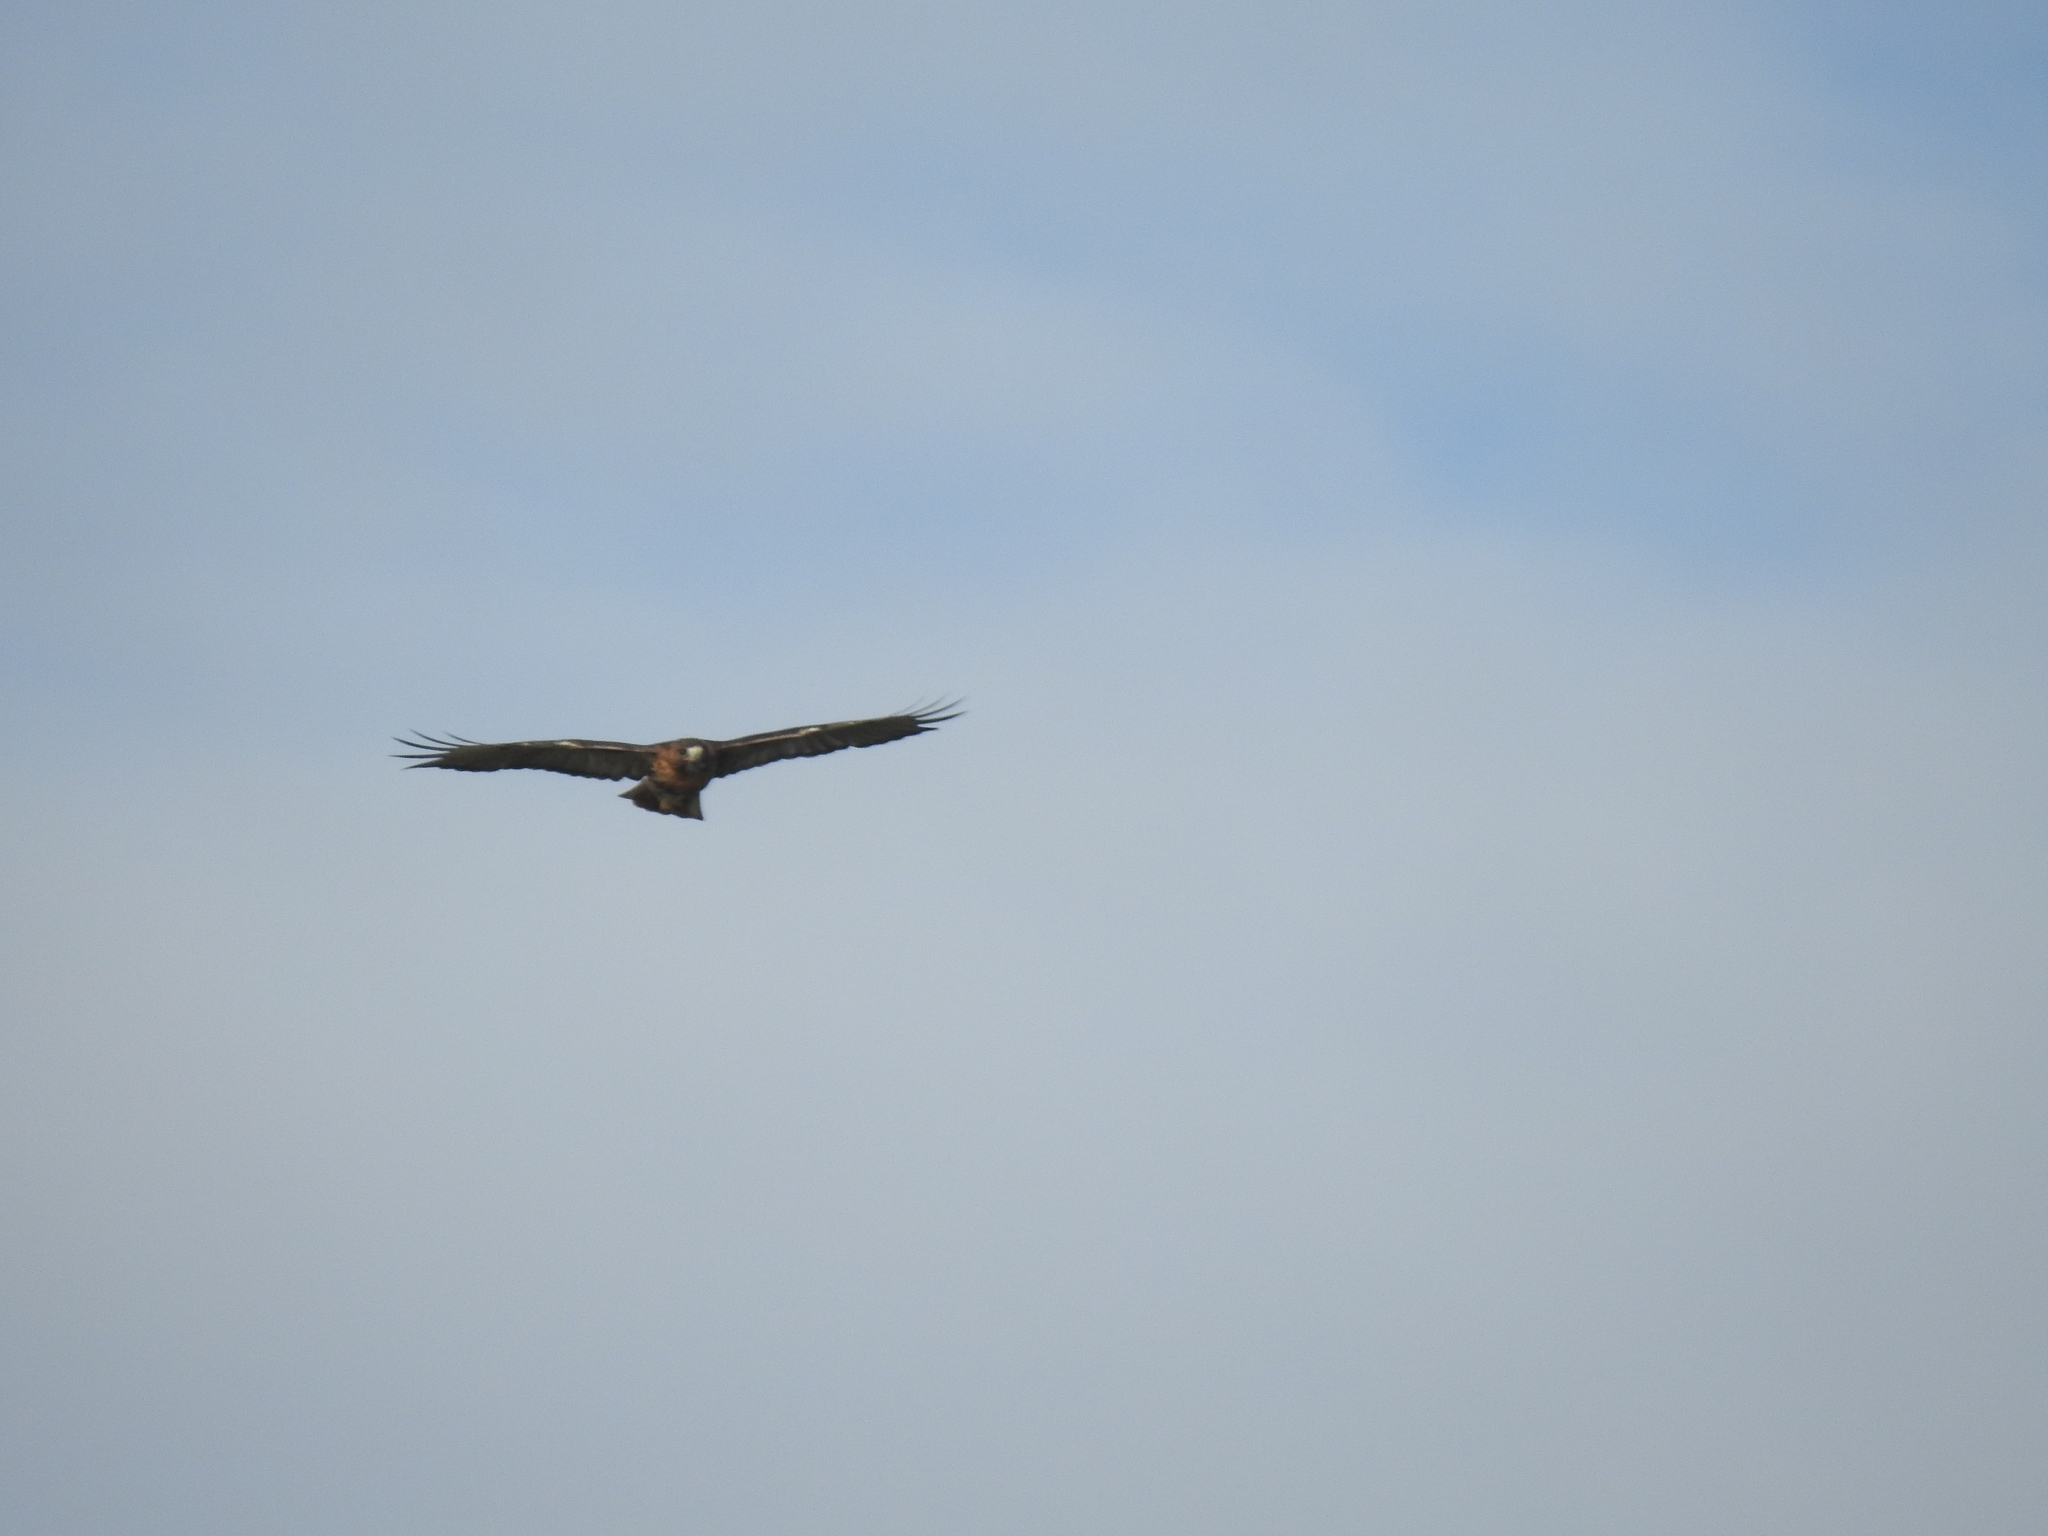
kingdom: Animalia
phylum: Chordata
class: Aves
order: Accipitriformes
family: Accipitridae
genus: Buteo
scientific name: Buteo jamaicensis
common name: Red-tailed hawk
